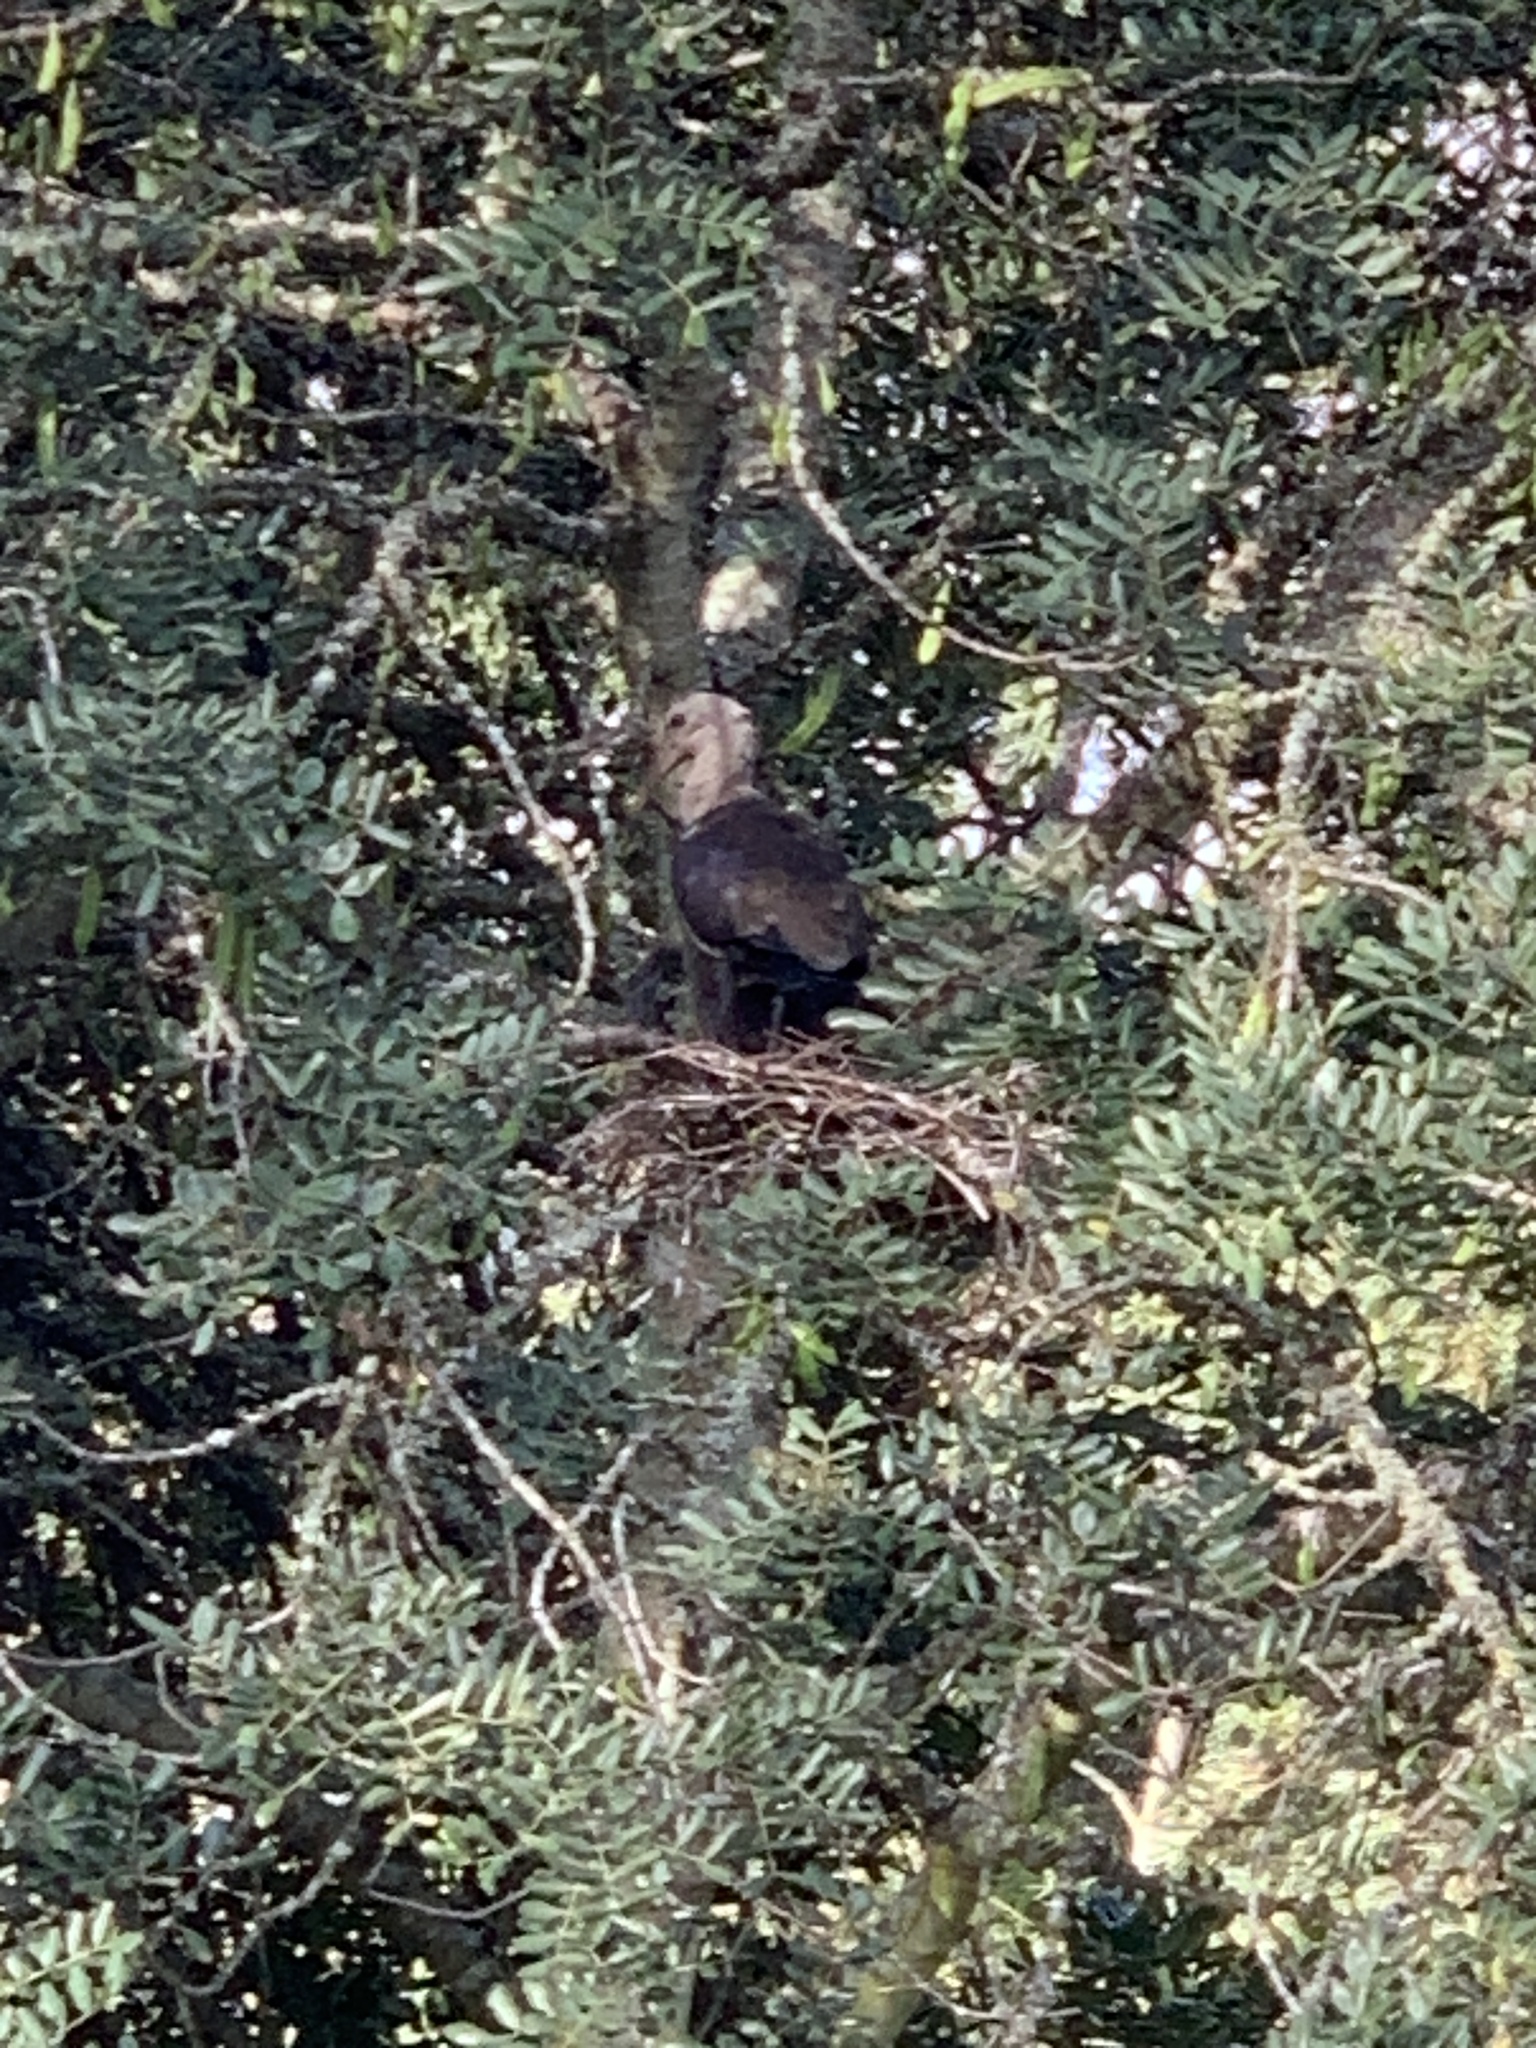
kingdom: Animalia
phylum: Chordata
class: Aves
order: Pelecaniformes
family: Threskiornithidae
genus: Bostrychia
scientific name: Bostrychia hagedash
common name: Hadada ibis
